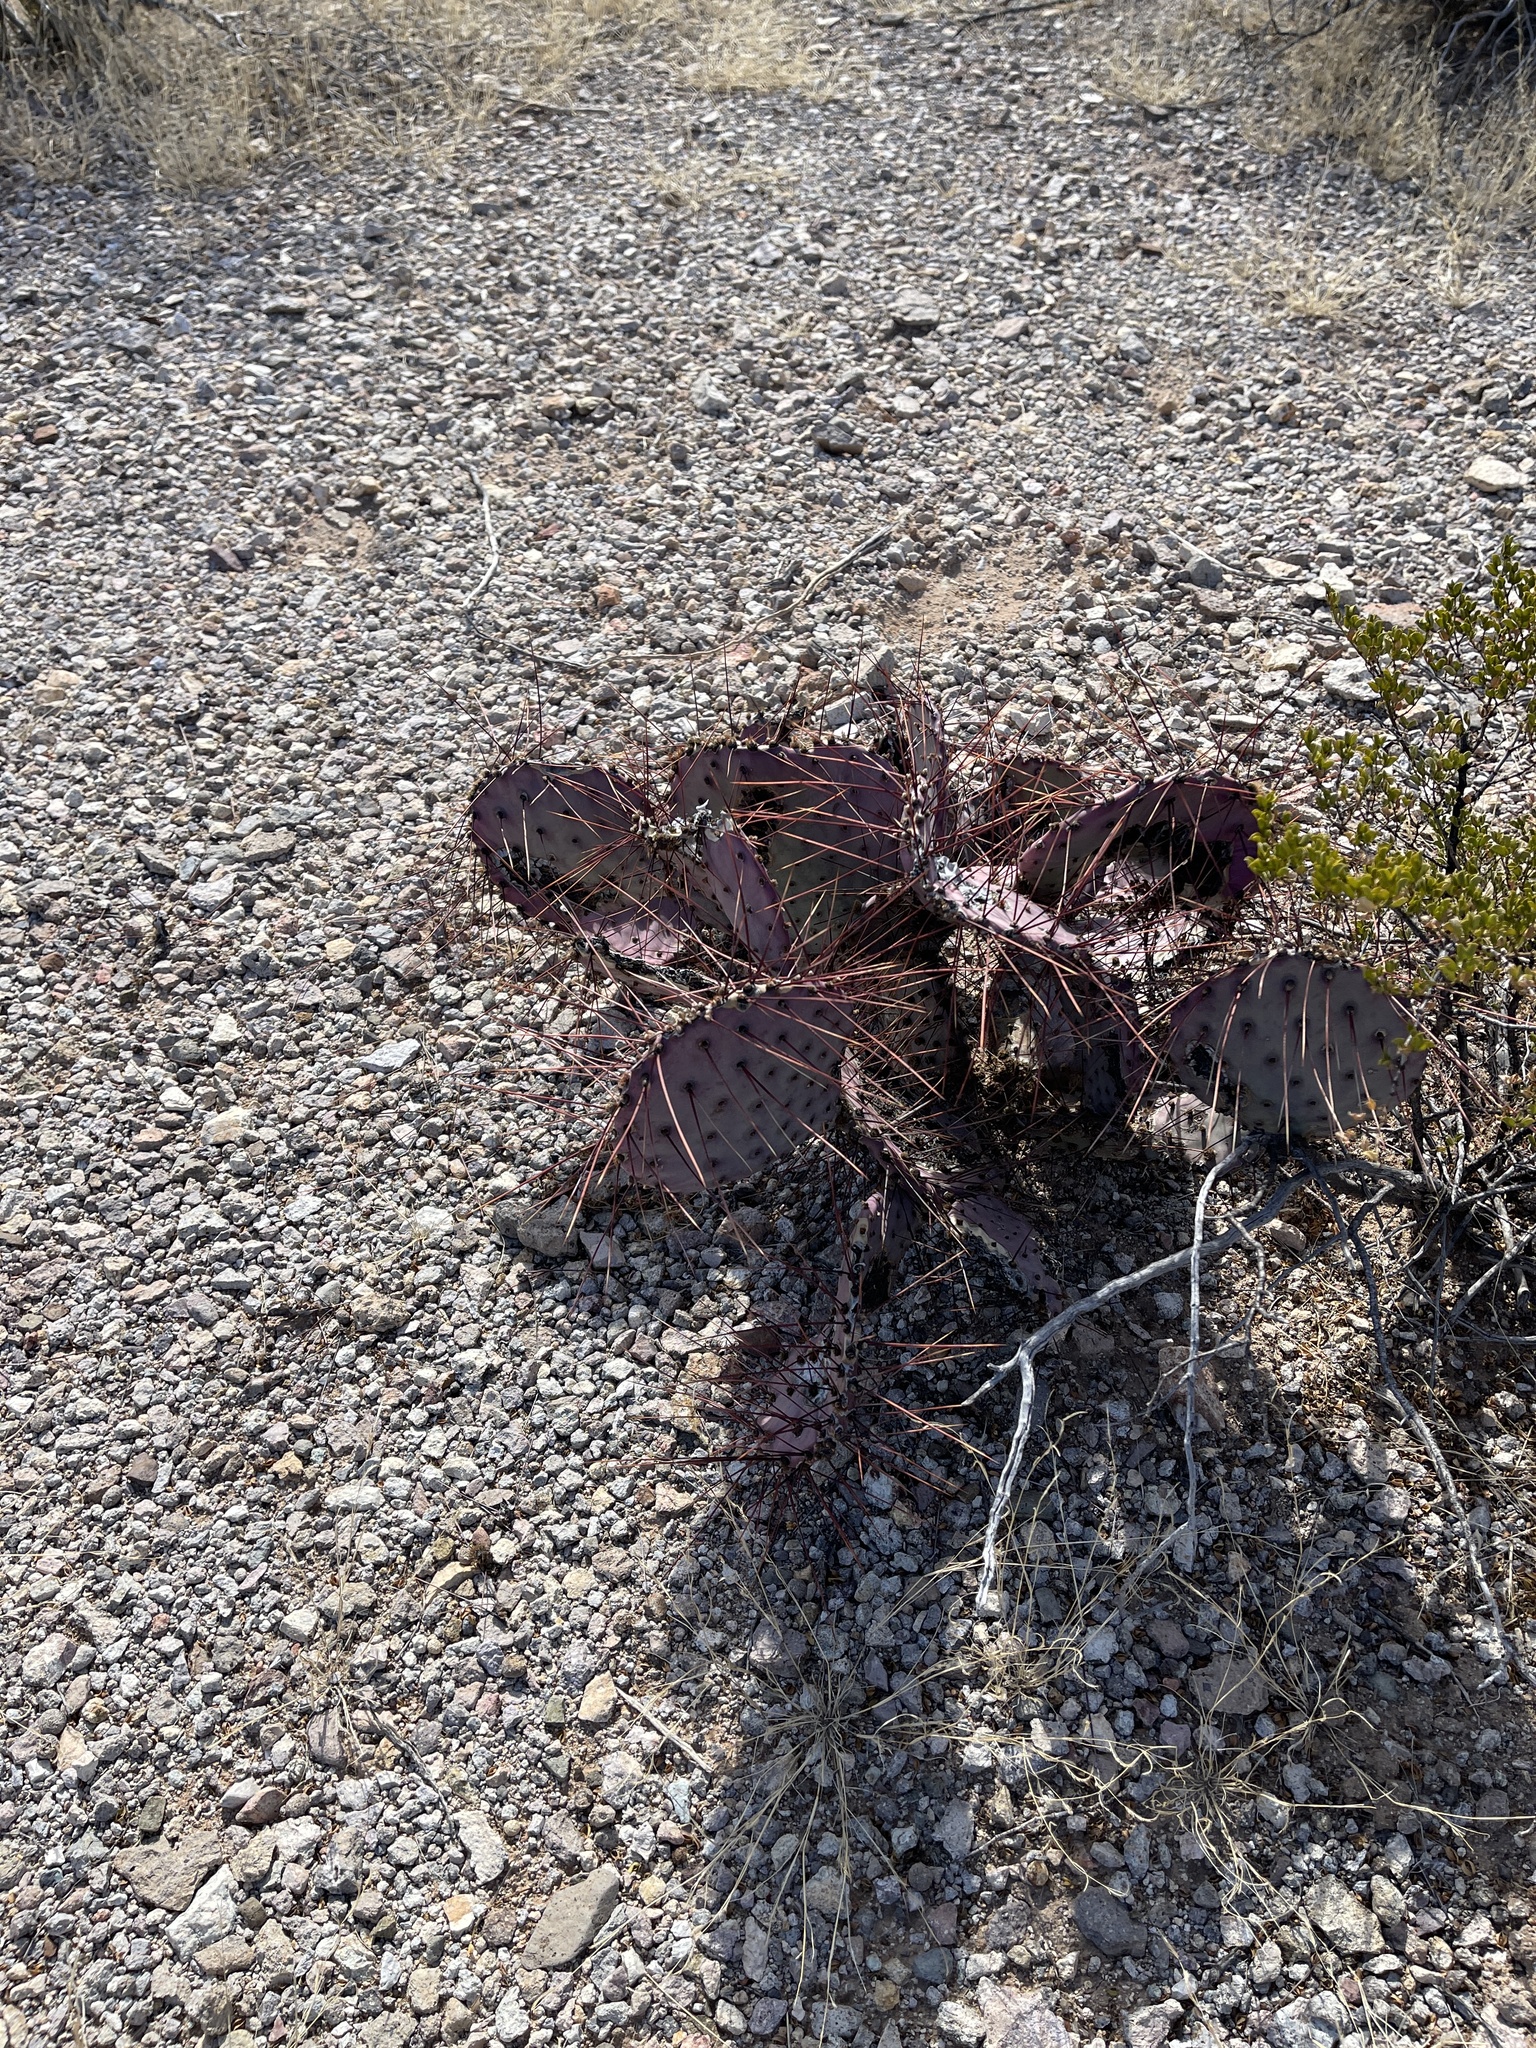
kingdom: Plantae
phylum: Tracheophyta
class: Magnoliopsida
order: Caryophyllales
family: Cactaceae
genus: Opuntia
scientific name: Opuntia macrocentra
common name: Purple prickly-pear
